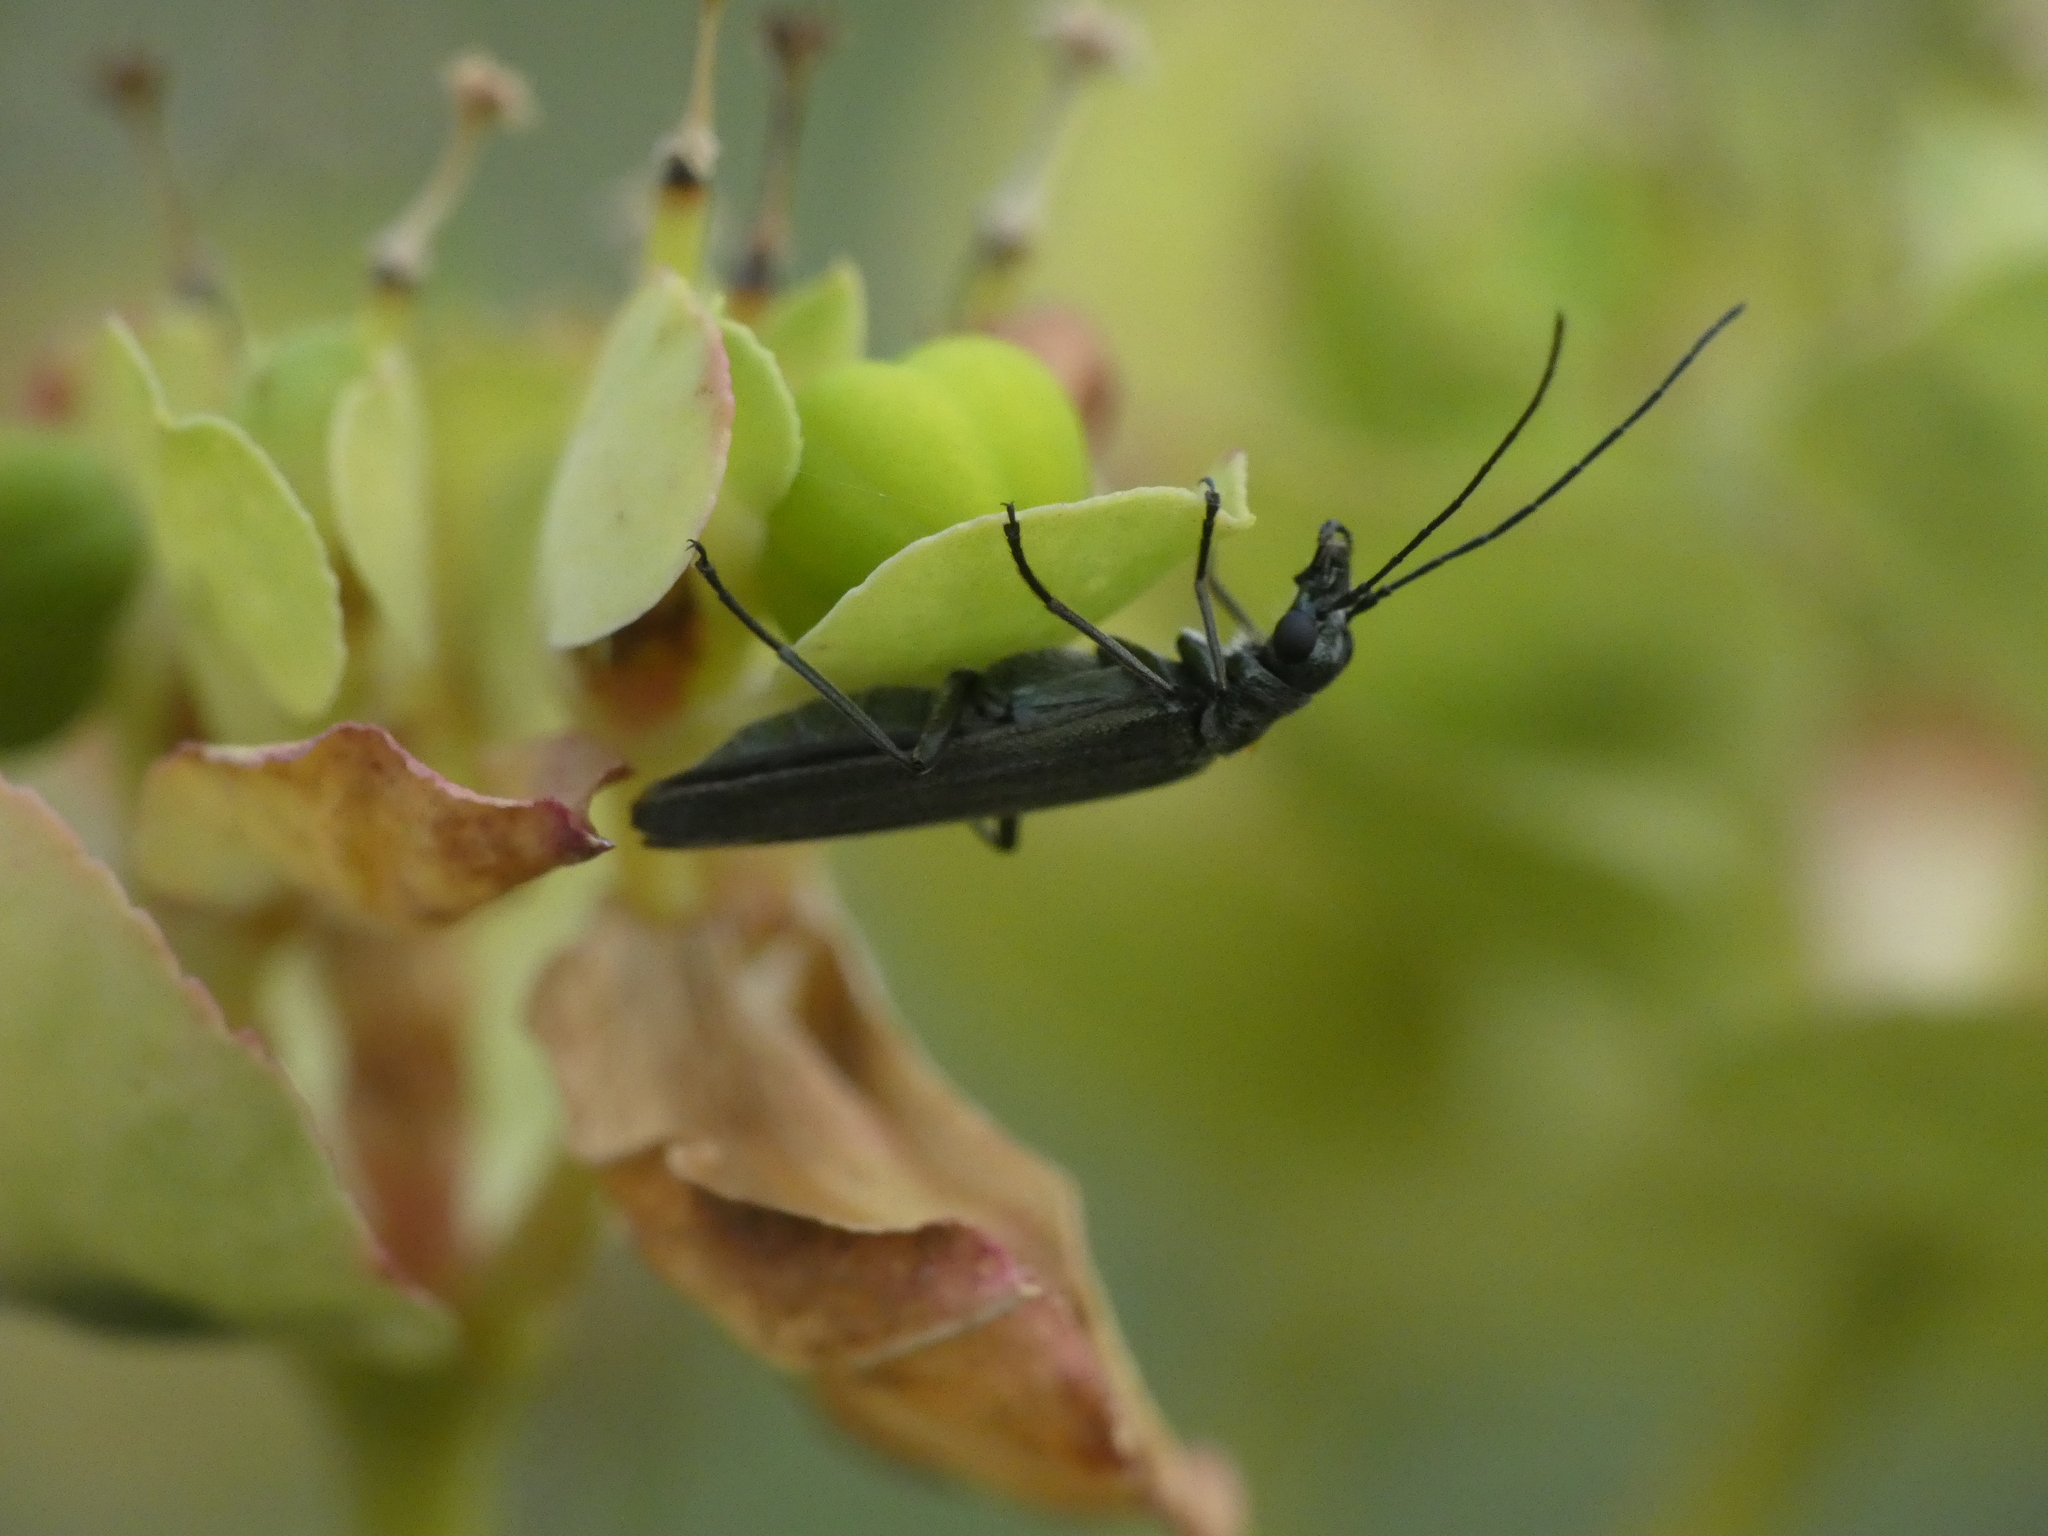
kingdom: Animalia
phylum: Arthropoda
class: Insecta
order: Coleoptera
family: Oedemeridae
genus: Oedemera
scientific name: Oedemera lurida
